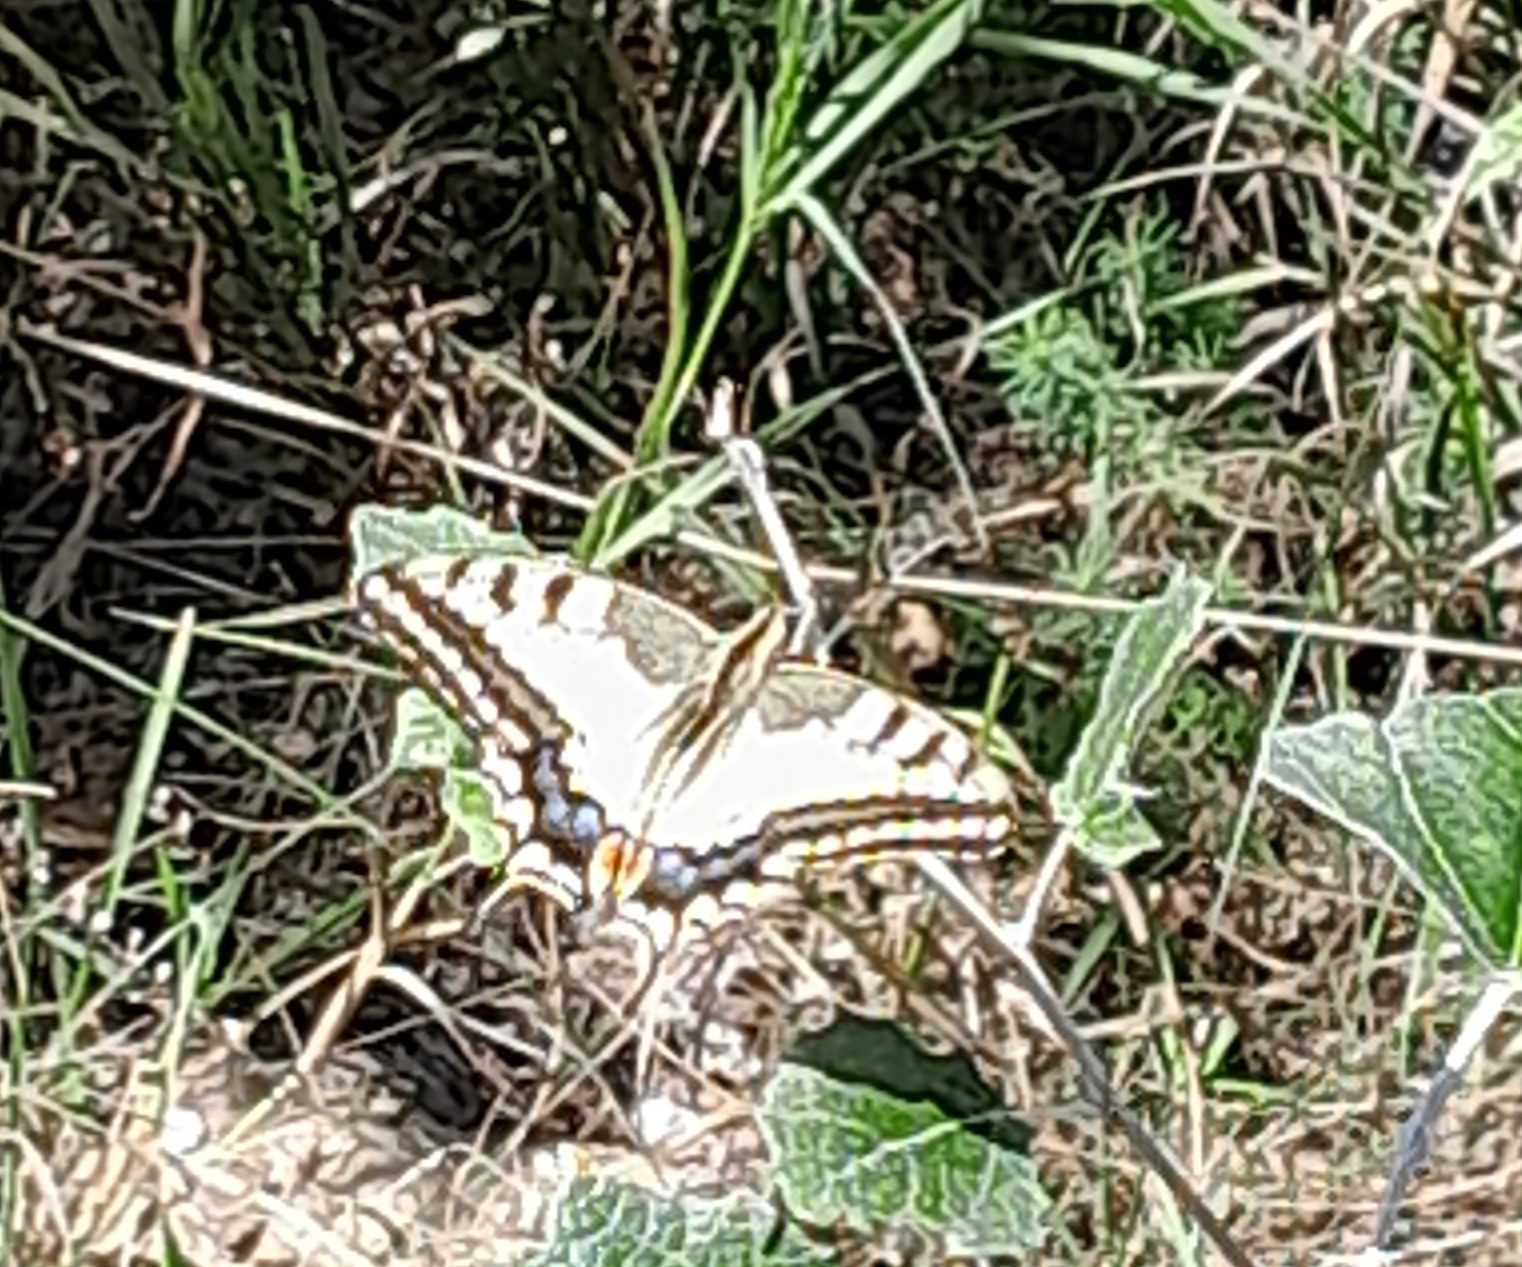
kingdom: Animalia
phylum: Arthropoda
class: Insecta
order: Lepidoptera
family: Papilionidae
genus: Papilio
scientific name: Papilio machaon
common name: Swallowtail
